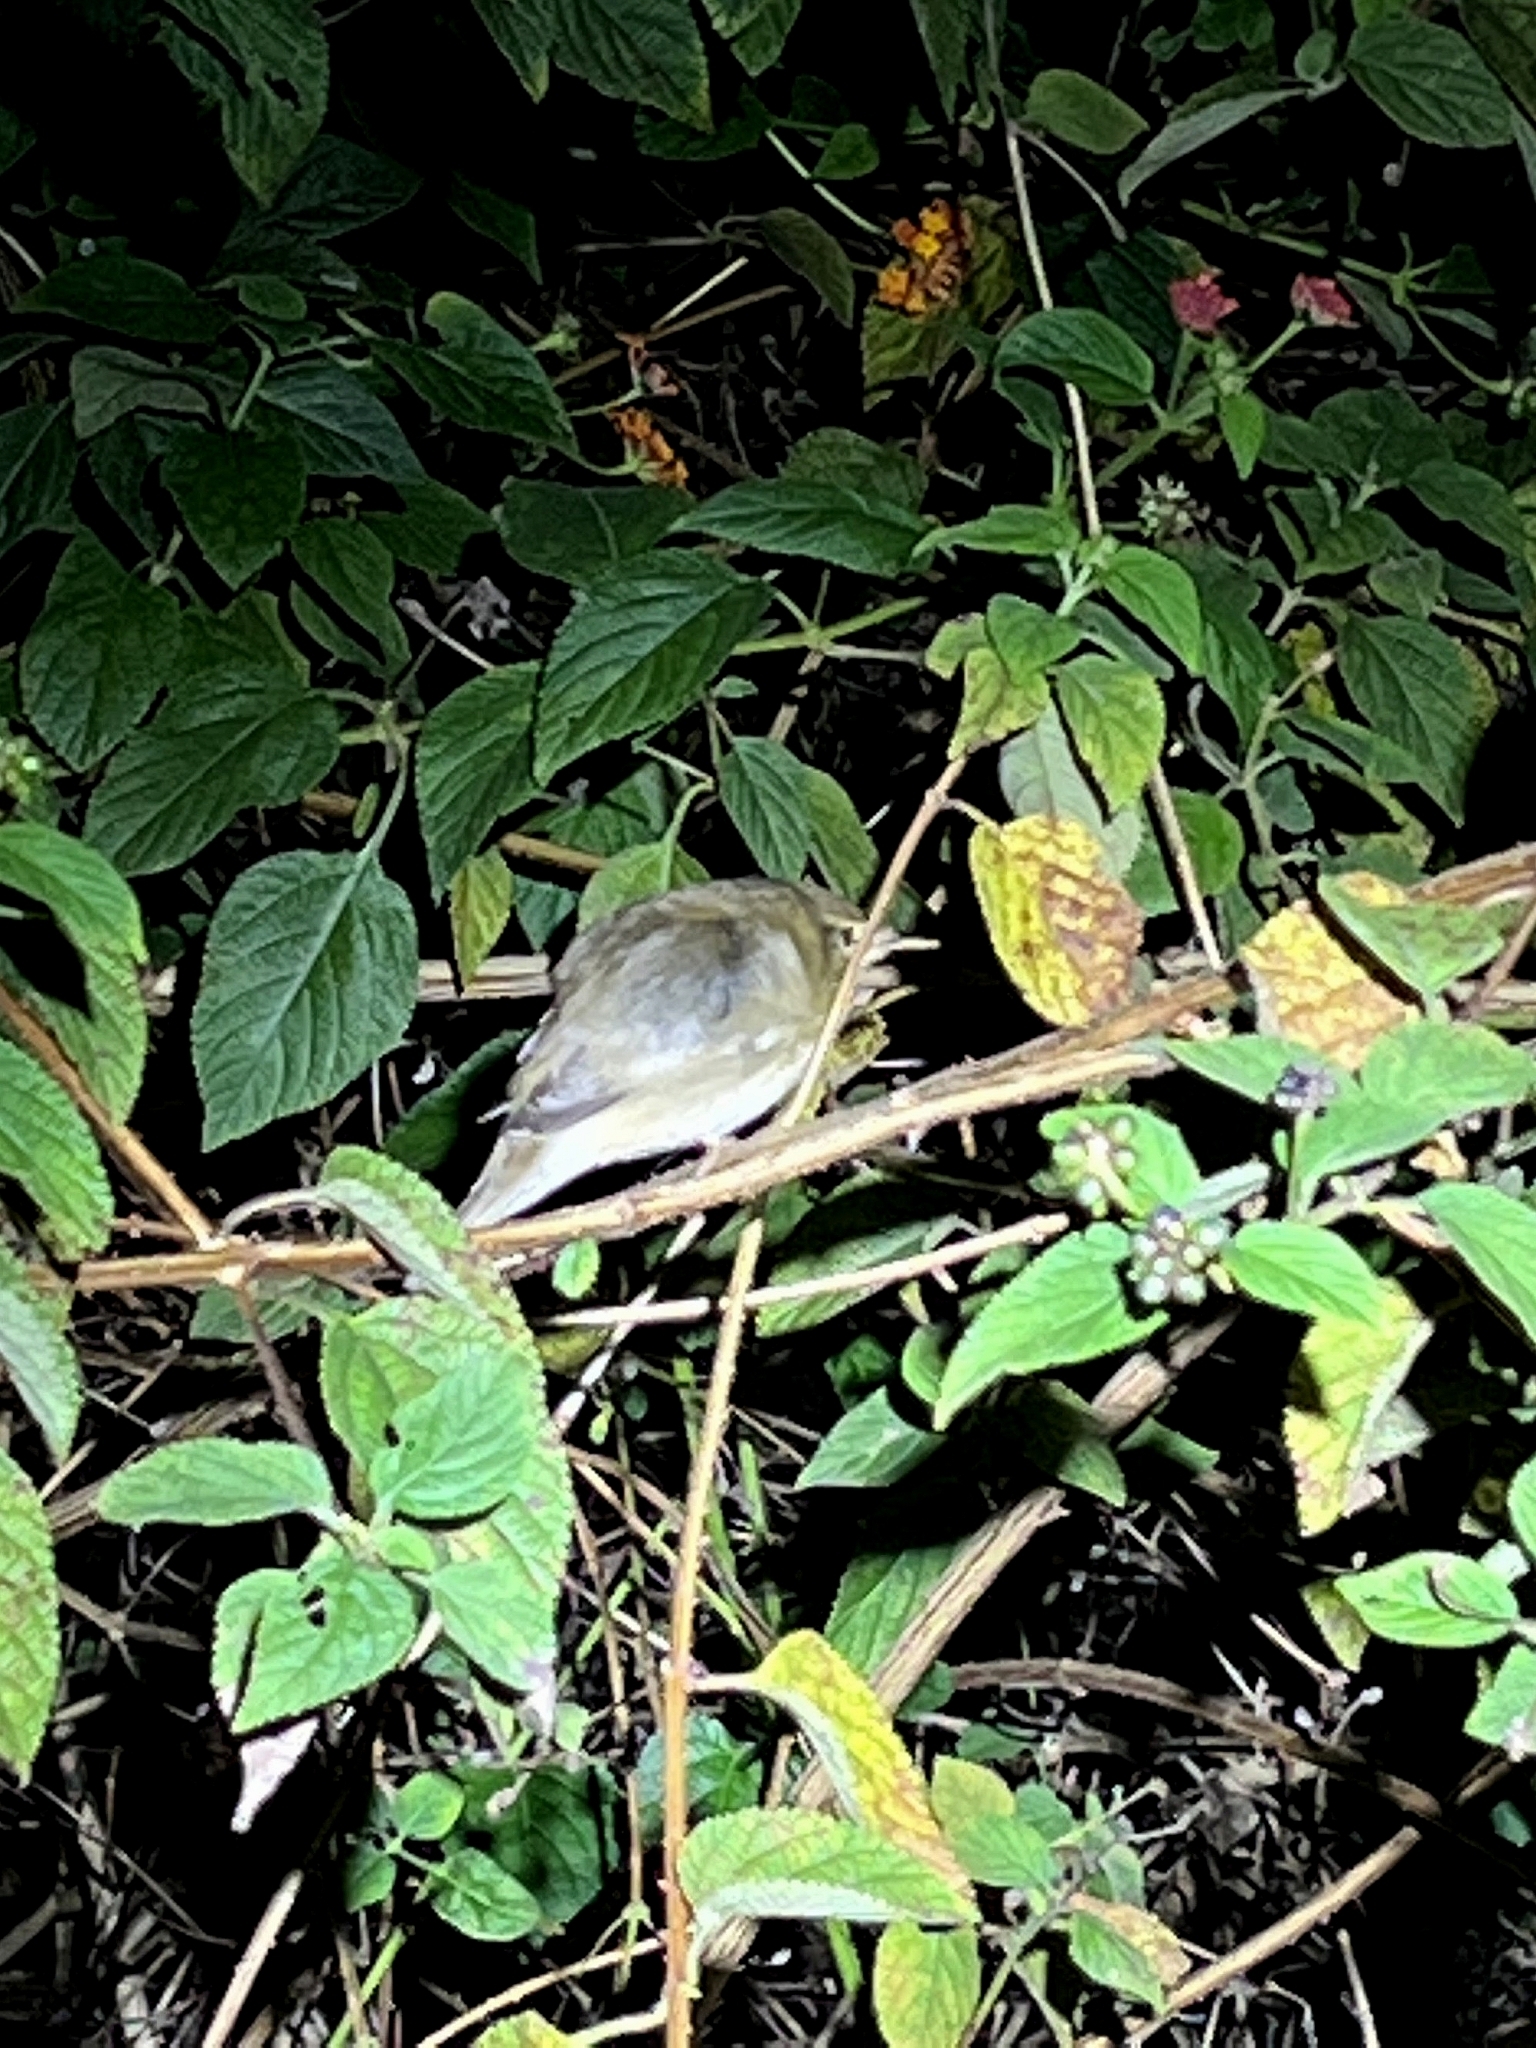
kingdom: Animalia
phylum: Chordata
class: Aves
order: Passeriformes
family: Acrocephalidae
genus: Acrocephalus
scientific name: Acrocephalus dumetorum
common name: Blyth's reed warbler
